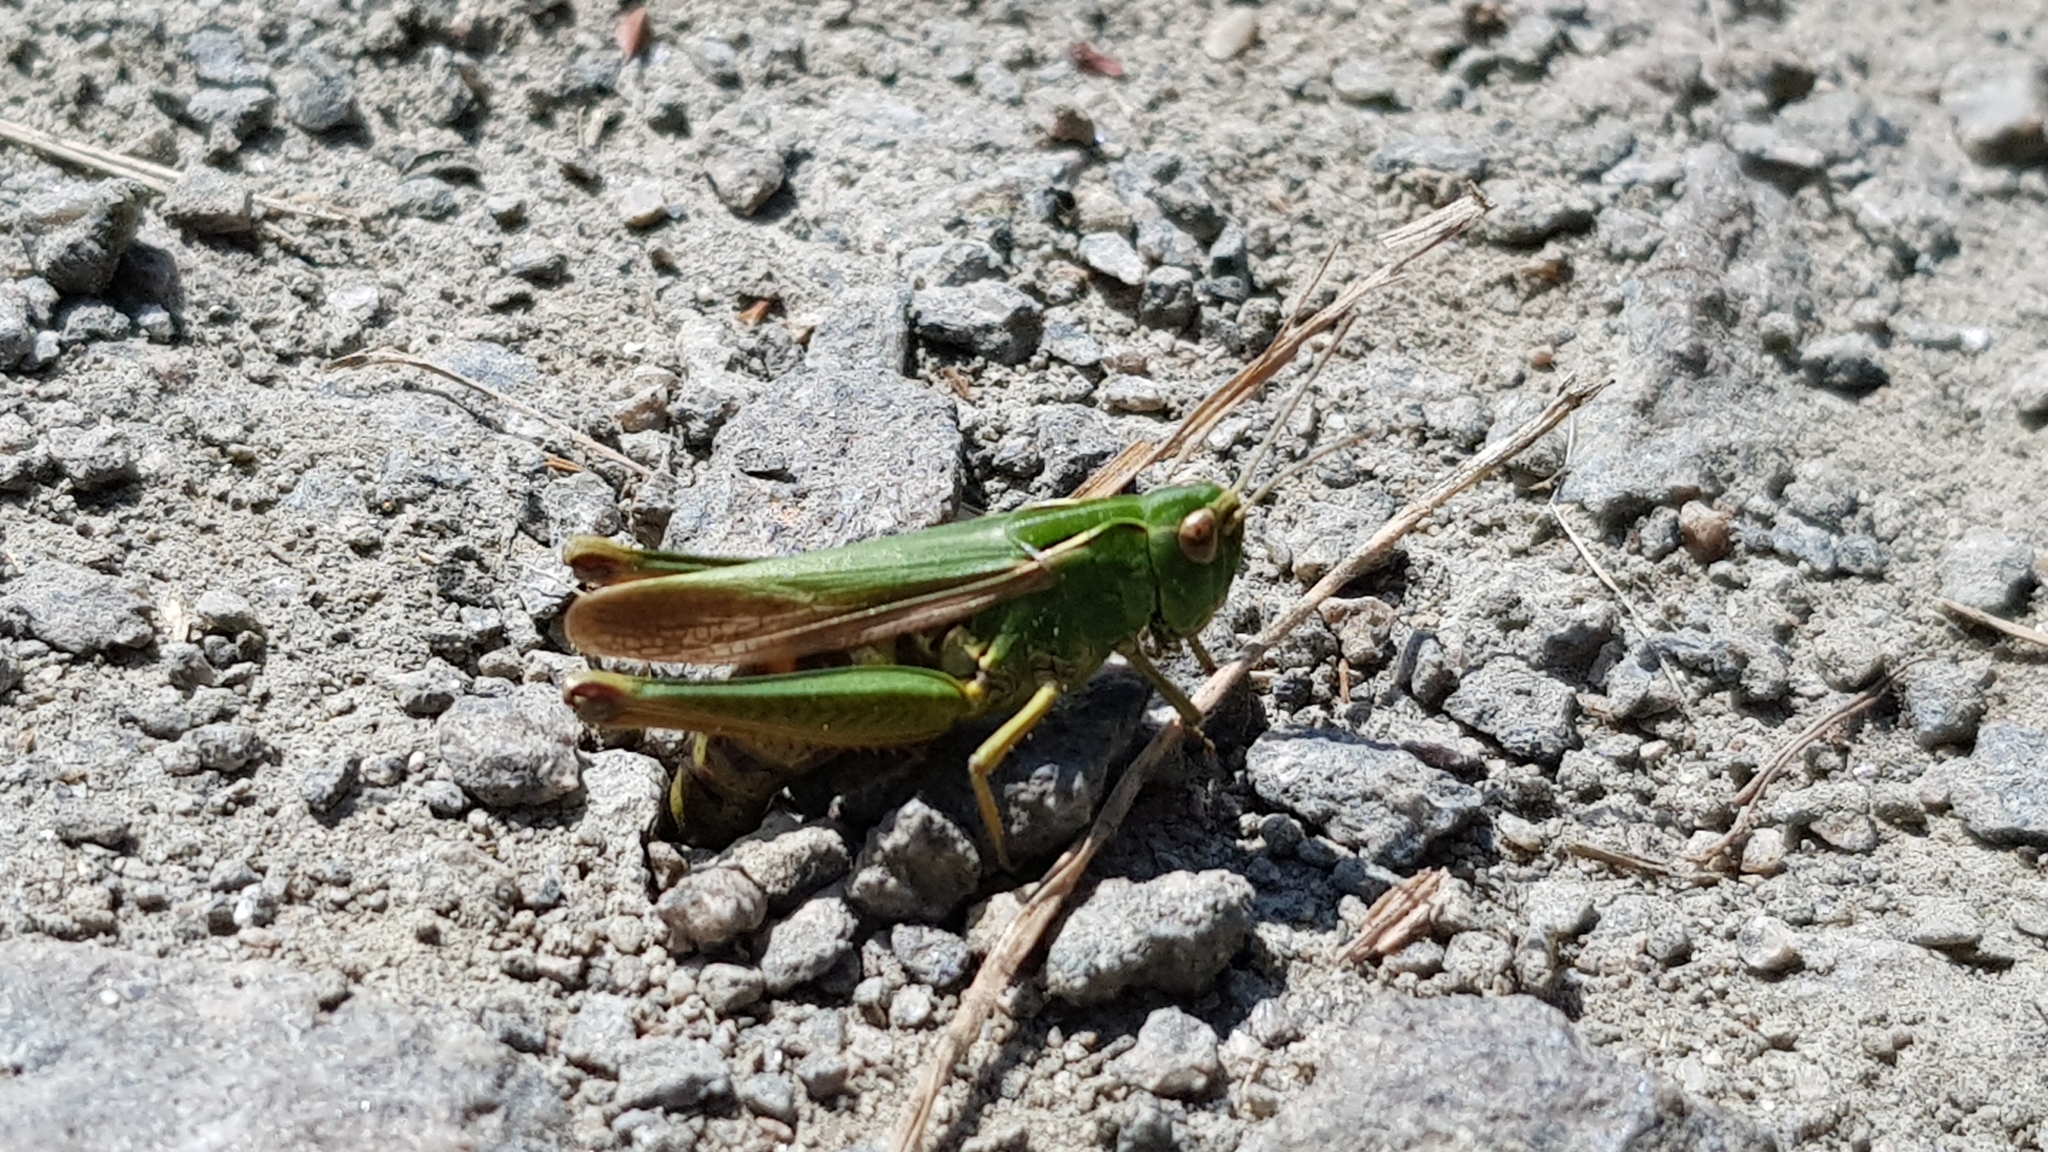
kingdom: Animalia
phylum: Arthropoda
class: Insecta
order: Orthoptera
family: Acrididae
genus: Omocestus
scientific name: Omocestus viridulus
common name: Common green grasshopper
